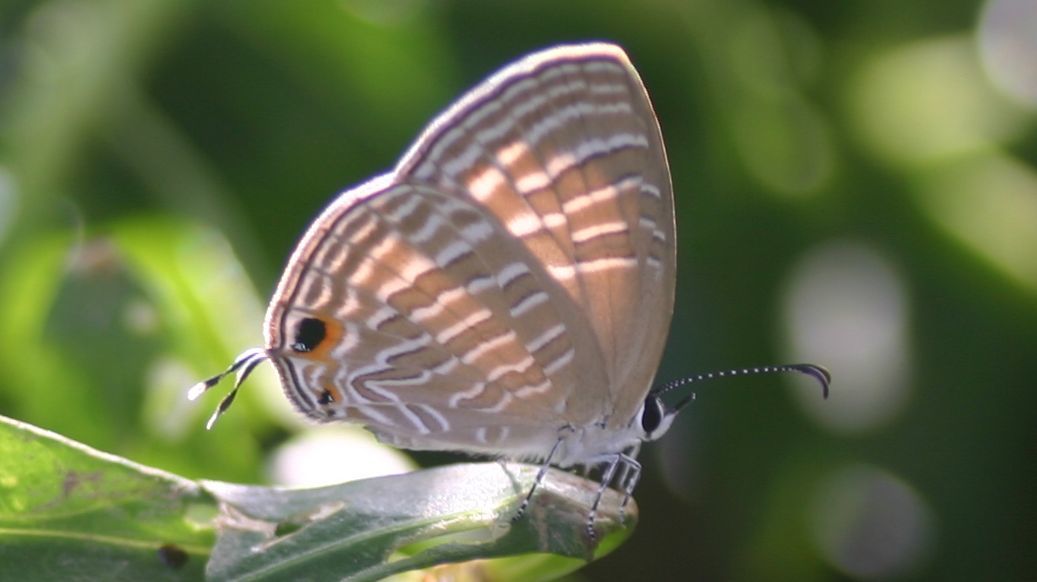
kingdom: Animalia
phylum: Arthropoda
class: Insecta
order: Lepidoptera
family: Lycaenidae
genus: Jamides
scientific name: Jamides celeno
